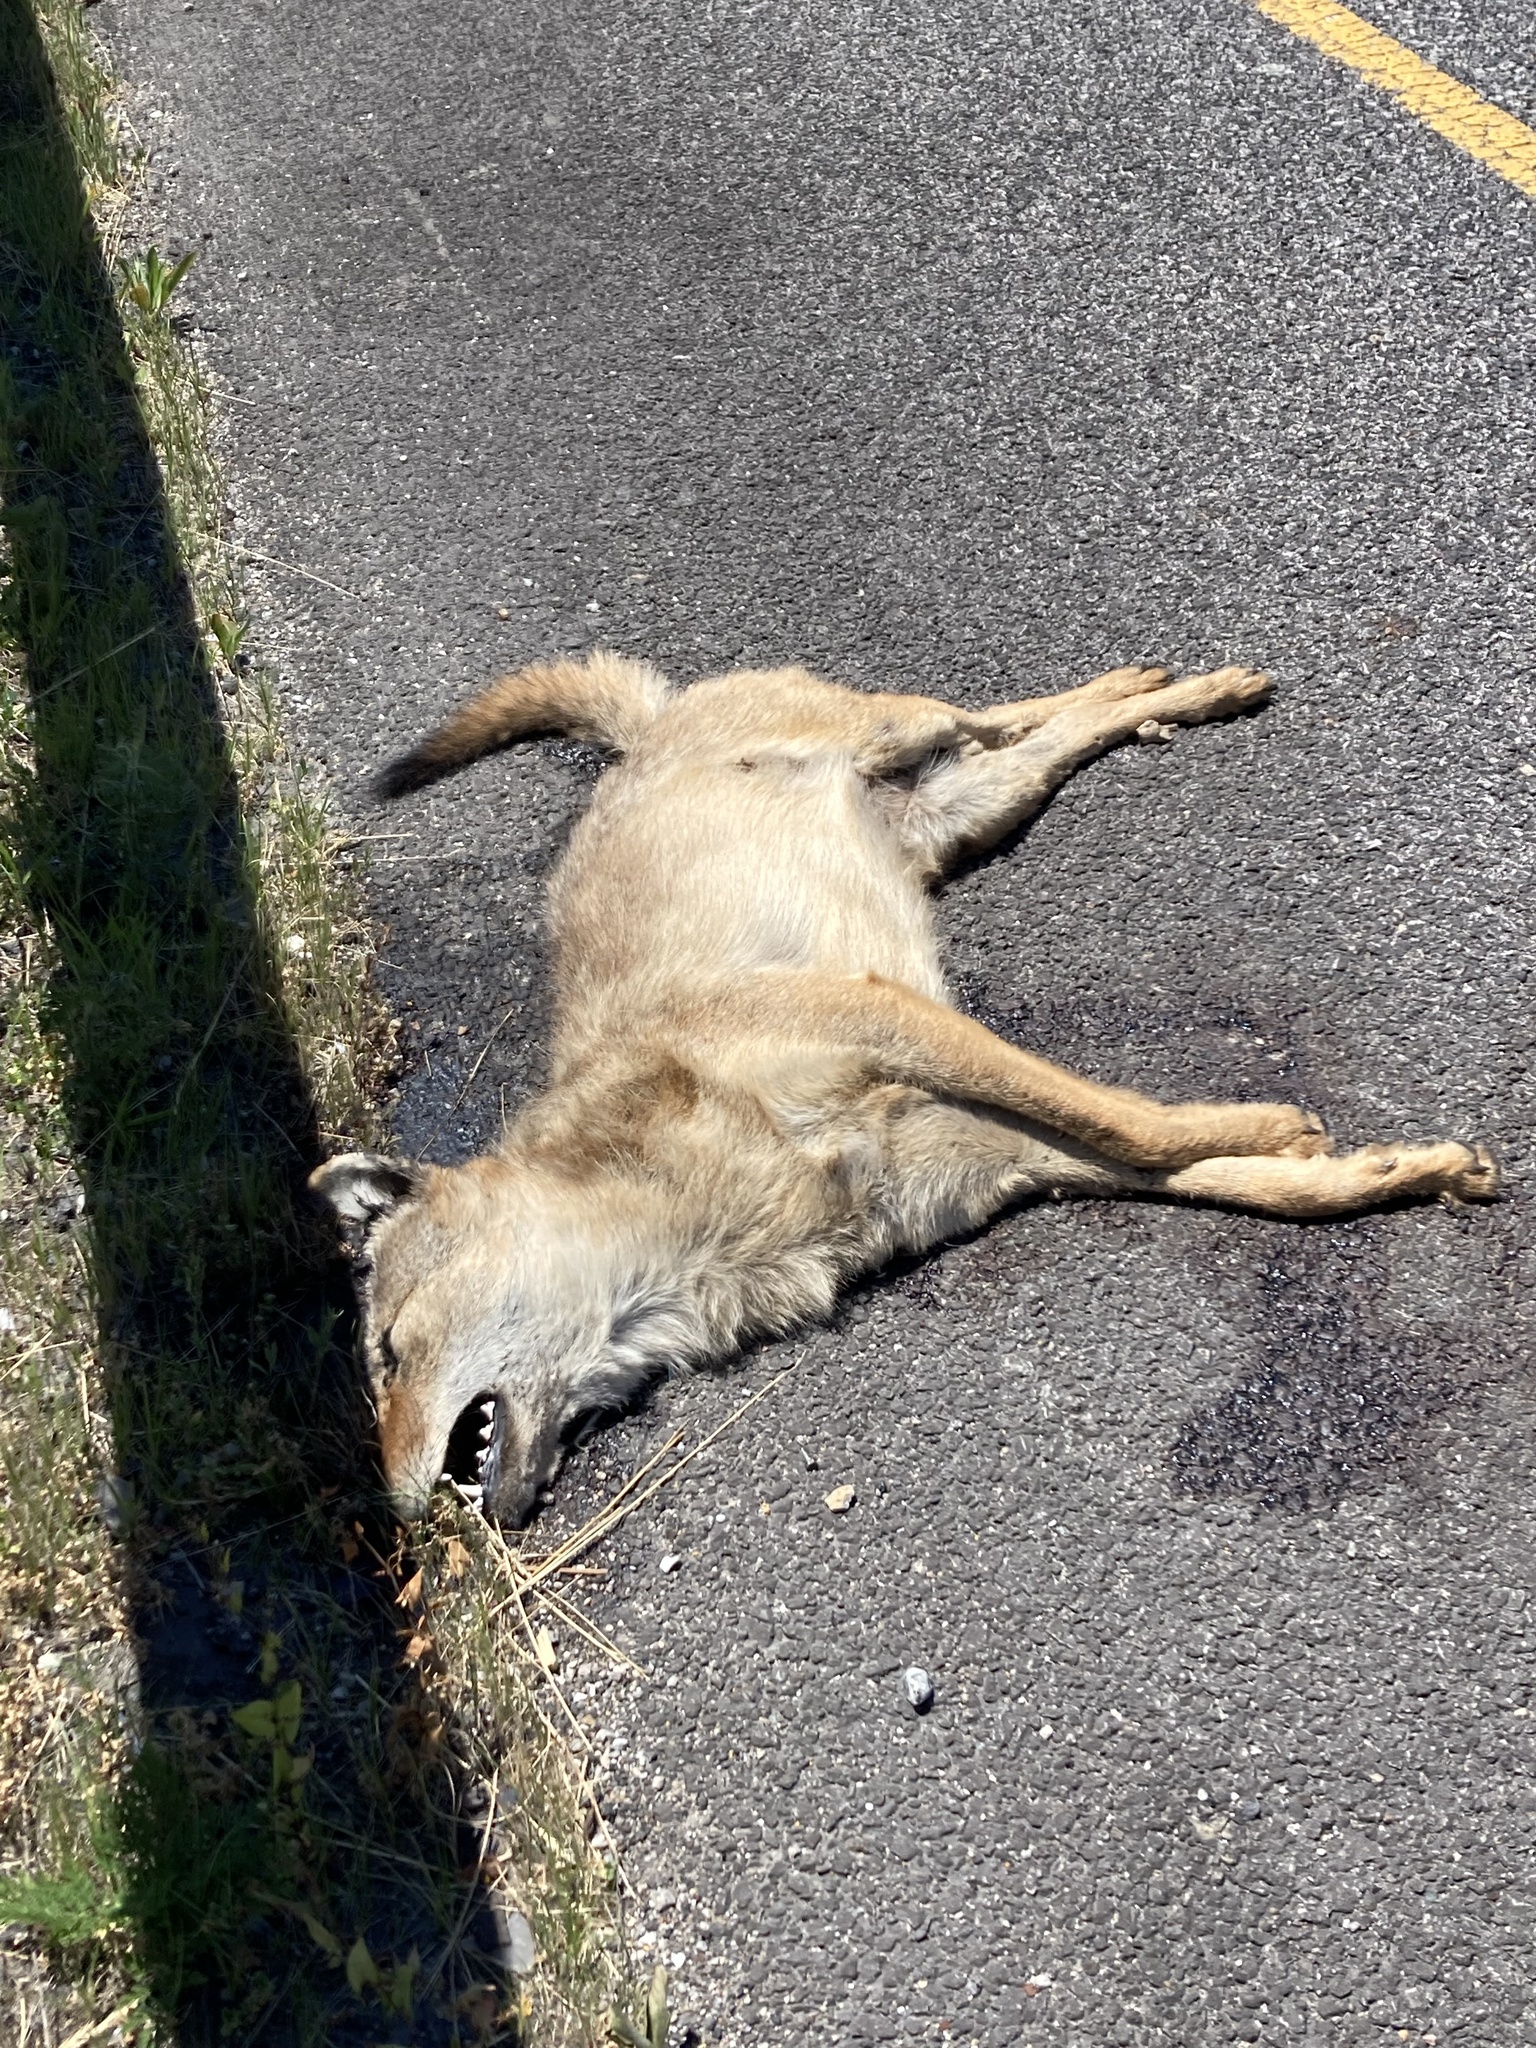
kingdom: Animalia
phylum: Chordata
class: Mammalia
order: Carnivora
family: Canidae
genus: Canis
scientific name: Canis latrans
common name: Coyote
